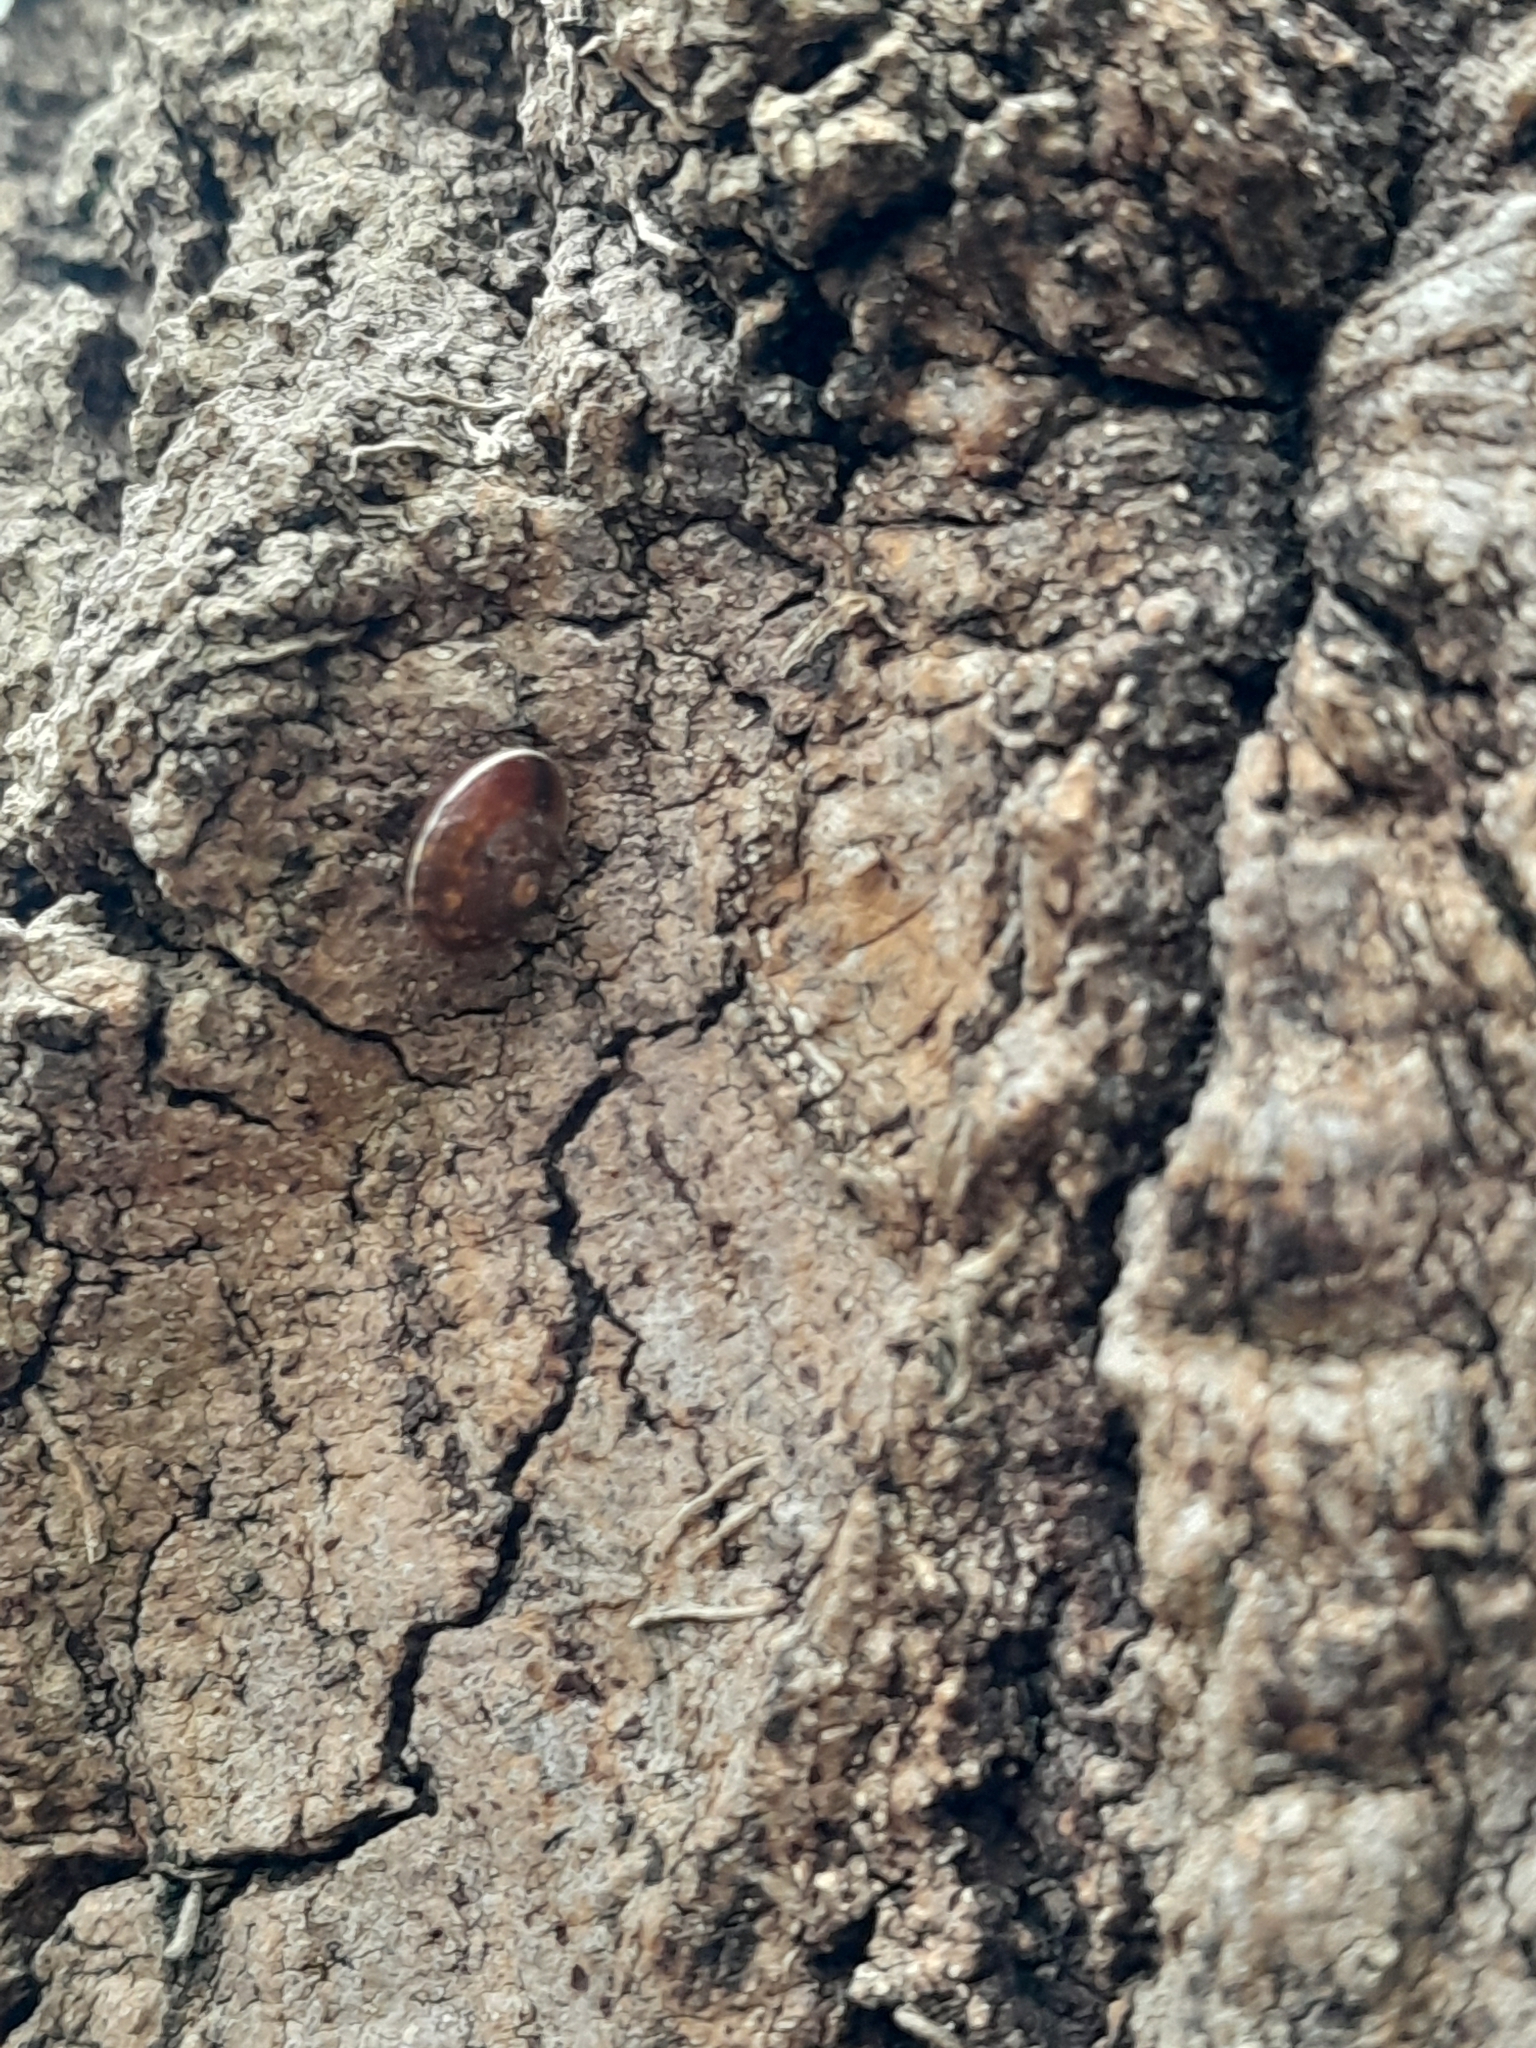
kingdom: Animalia
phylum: Mollusca
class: Gastropoda
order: Stylommatophora
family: Hygromiidae
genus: Hygromia
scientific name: Hygromia cinctella
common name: Girdled snail
